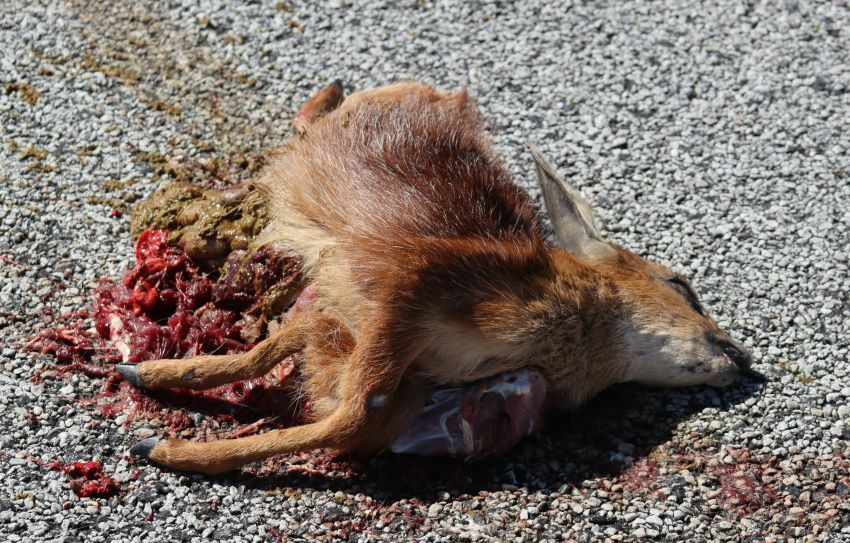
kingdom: Animalia
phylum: Chordata
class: Mammalia
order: Artiodactyla
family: Bovidae
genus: Raphicerus
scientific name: Raphicerus melanotis
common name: Cape grysbok
